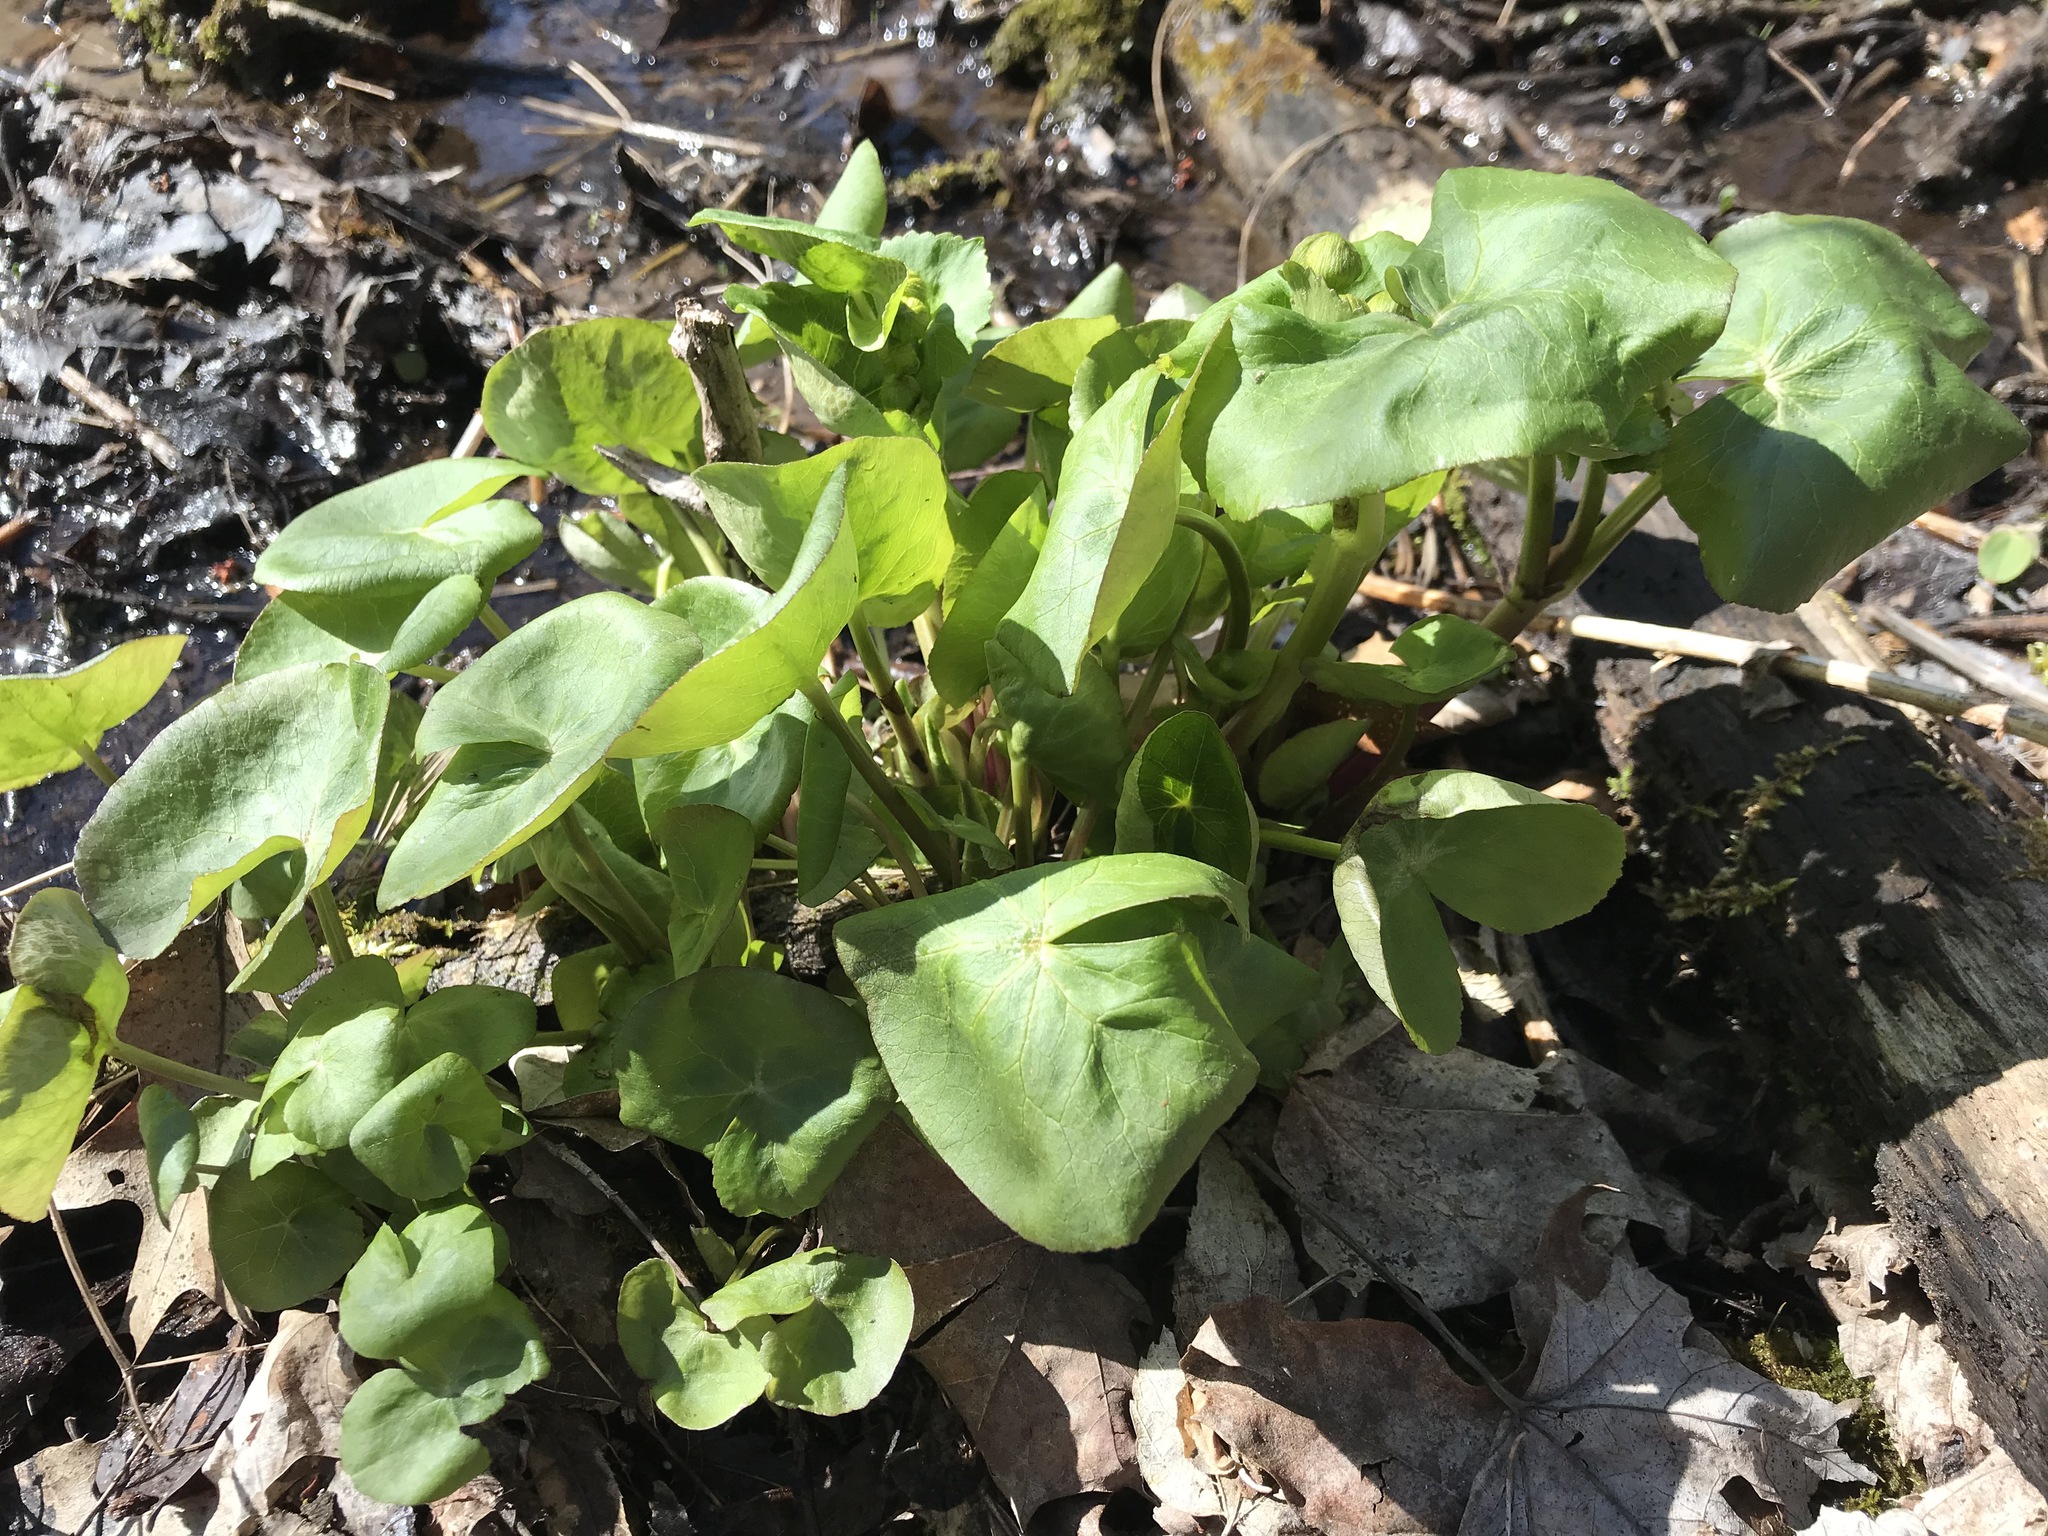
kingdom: Plantae
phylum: Tracheophyta
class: Magnoliopsida
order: Ranunculales
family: Ranunculaceae
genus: Caltha
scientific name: Caltha palustris
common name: Marsh marigold
